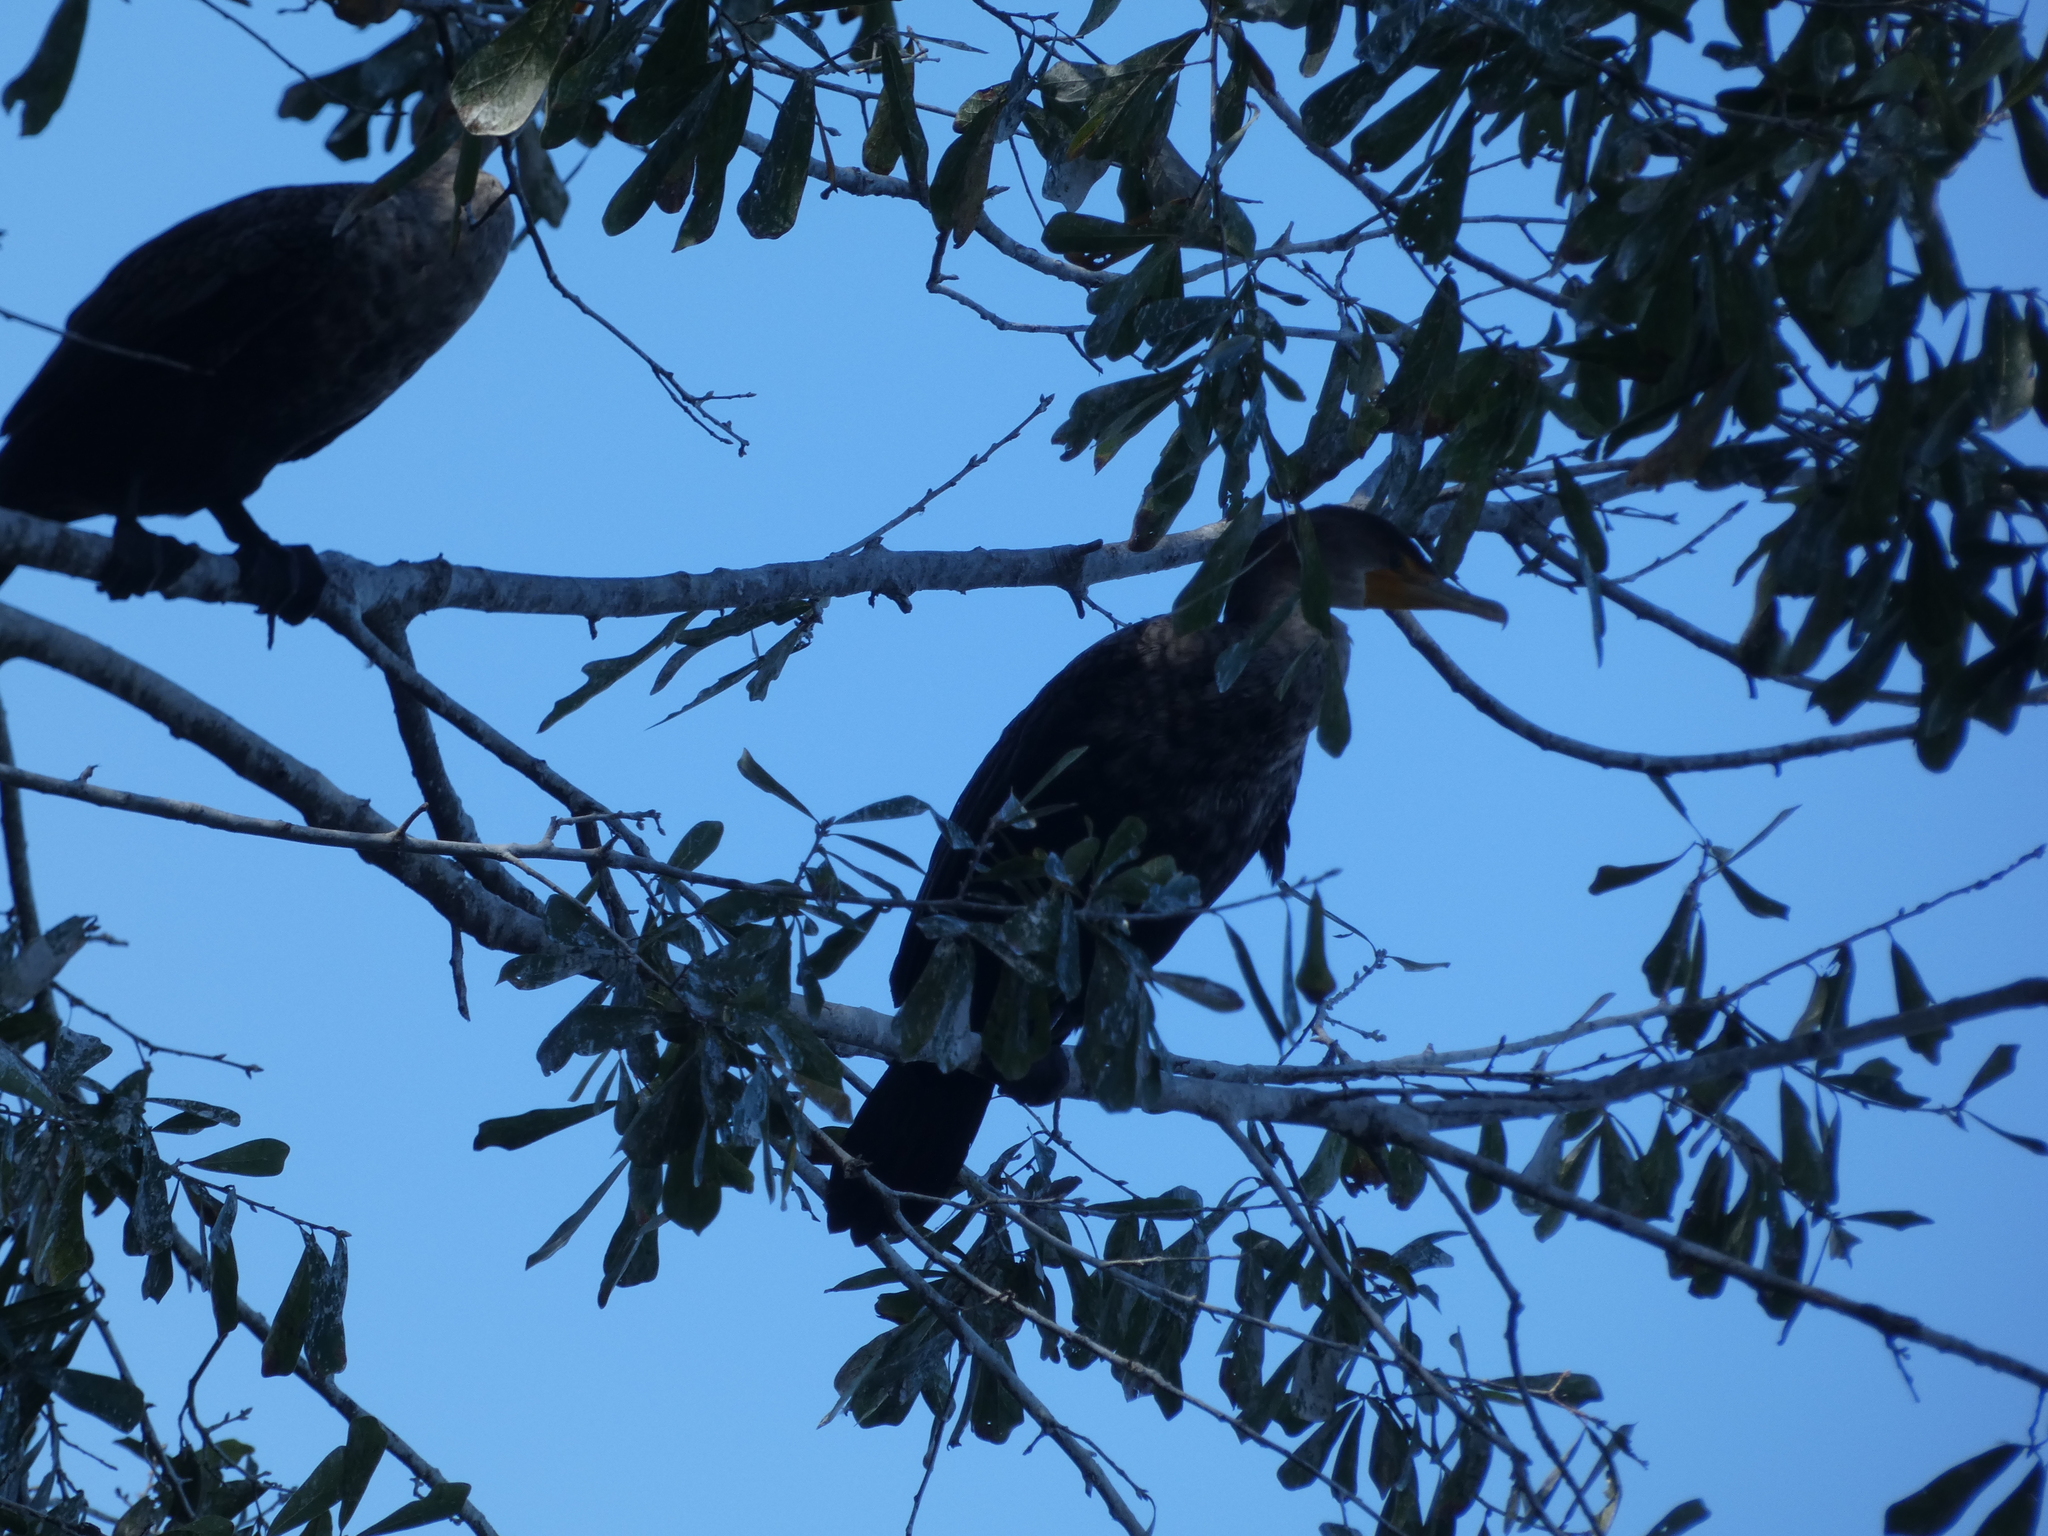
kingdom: Animalia
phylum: Chordata
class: Aves
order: Suliformes
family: Phalacrocoracidae
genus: Phalacrocorax
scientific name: Phalacrocorax auritus
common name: Double-crested cormorant
